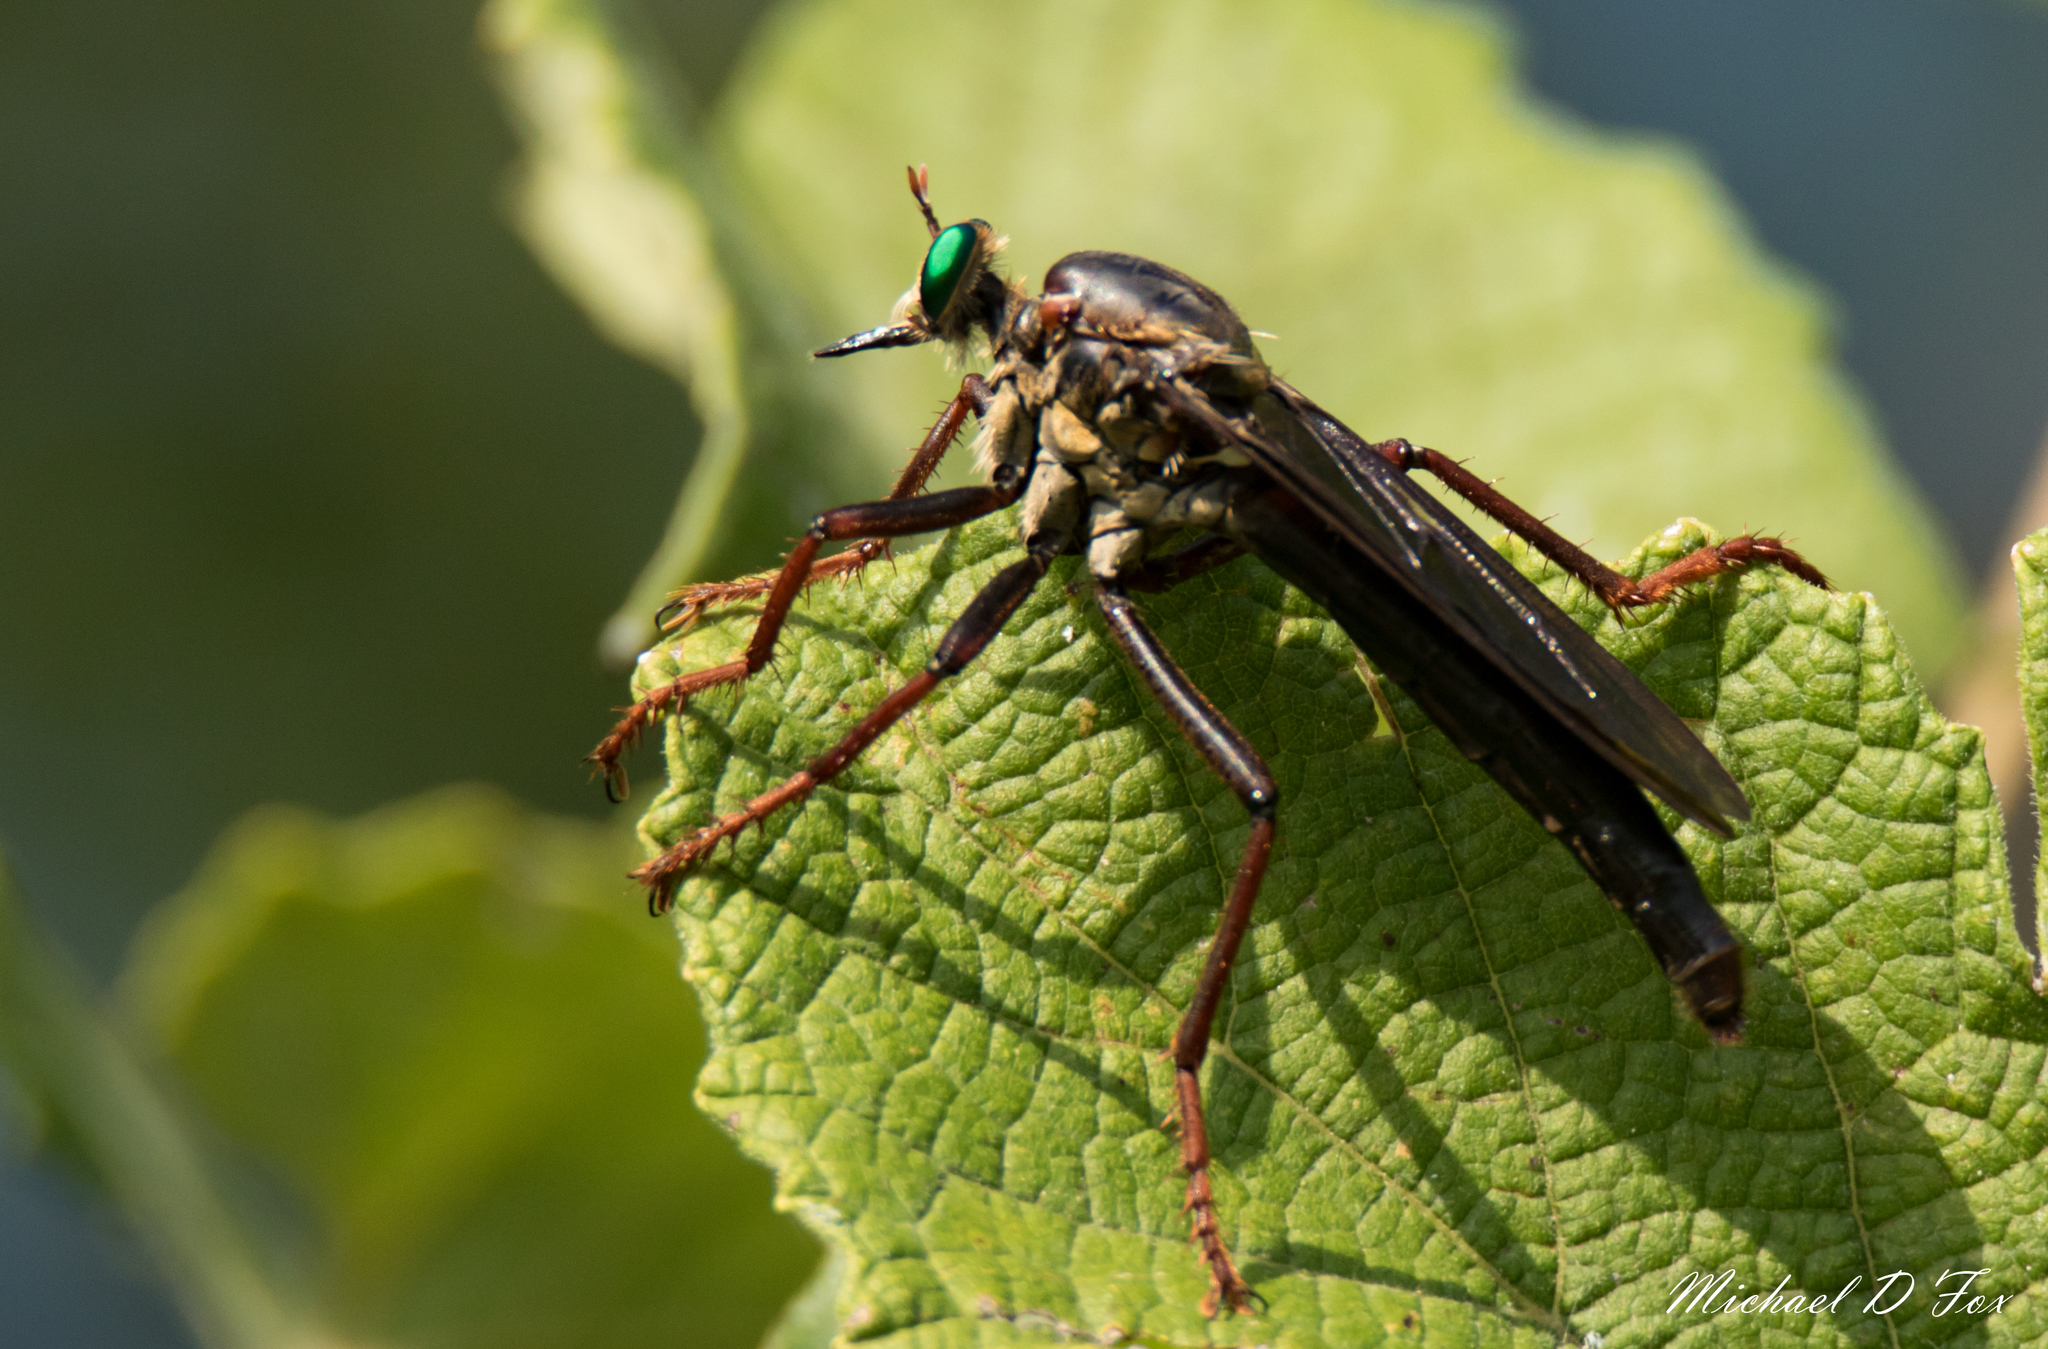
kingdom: Animalia
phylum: Arthropoda
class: Insecta
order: Diptera
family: Asilidae
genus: Microstylum
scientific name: Microstylum morosum
